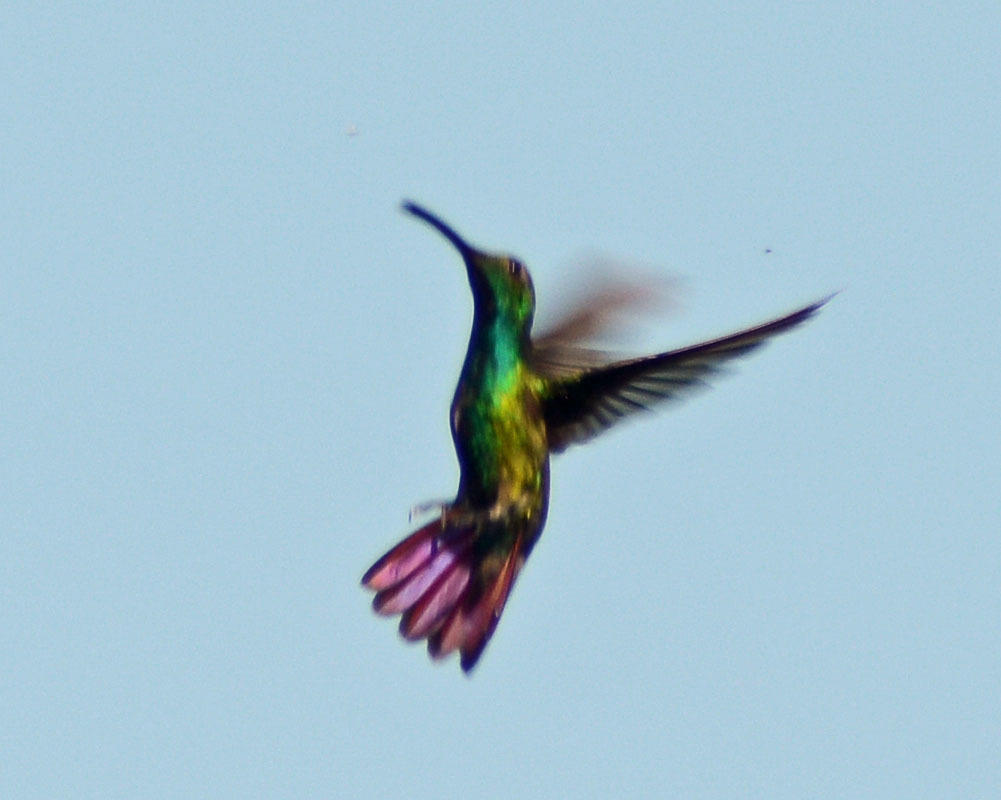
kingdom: Animalia
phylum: Chordata
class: Aves
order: Apodiformes
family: Trochilidae
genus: Anthracothorax
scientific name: Anthracothorax prevostii
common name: Green-breasted mango
